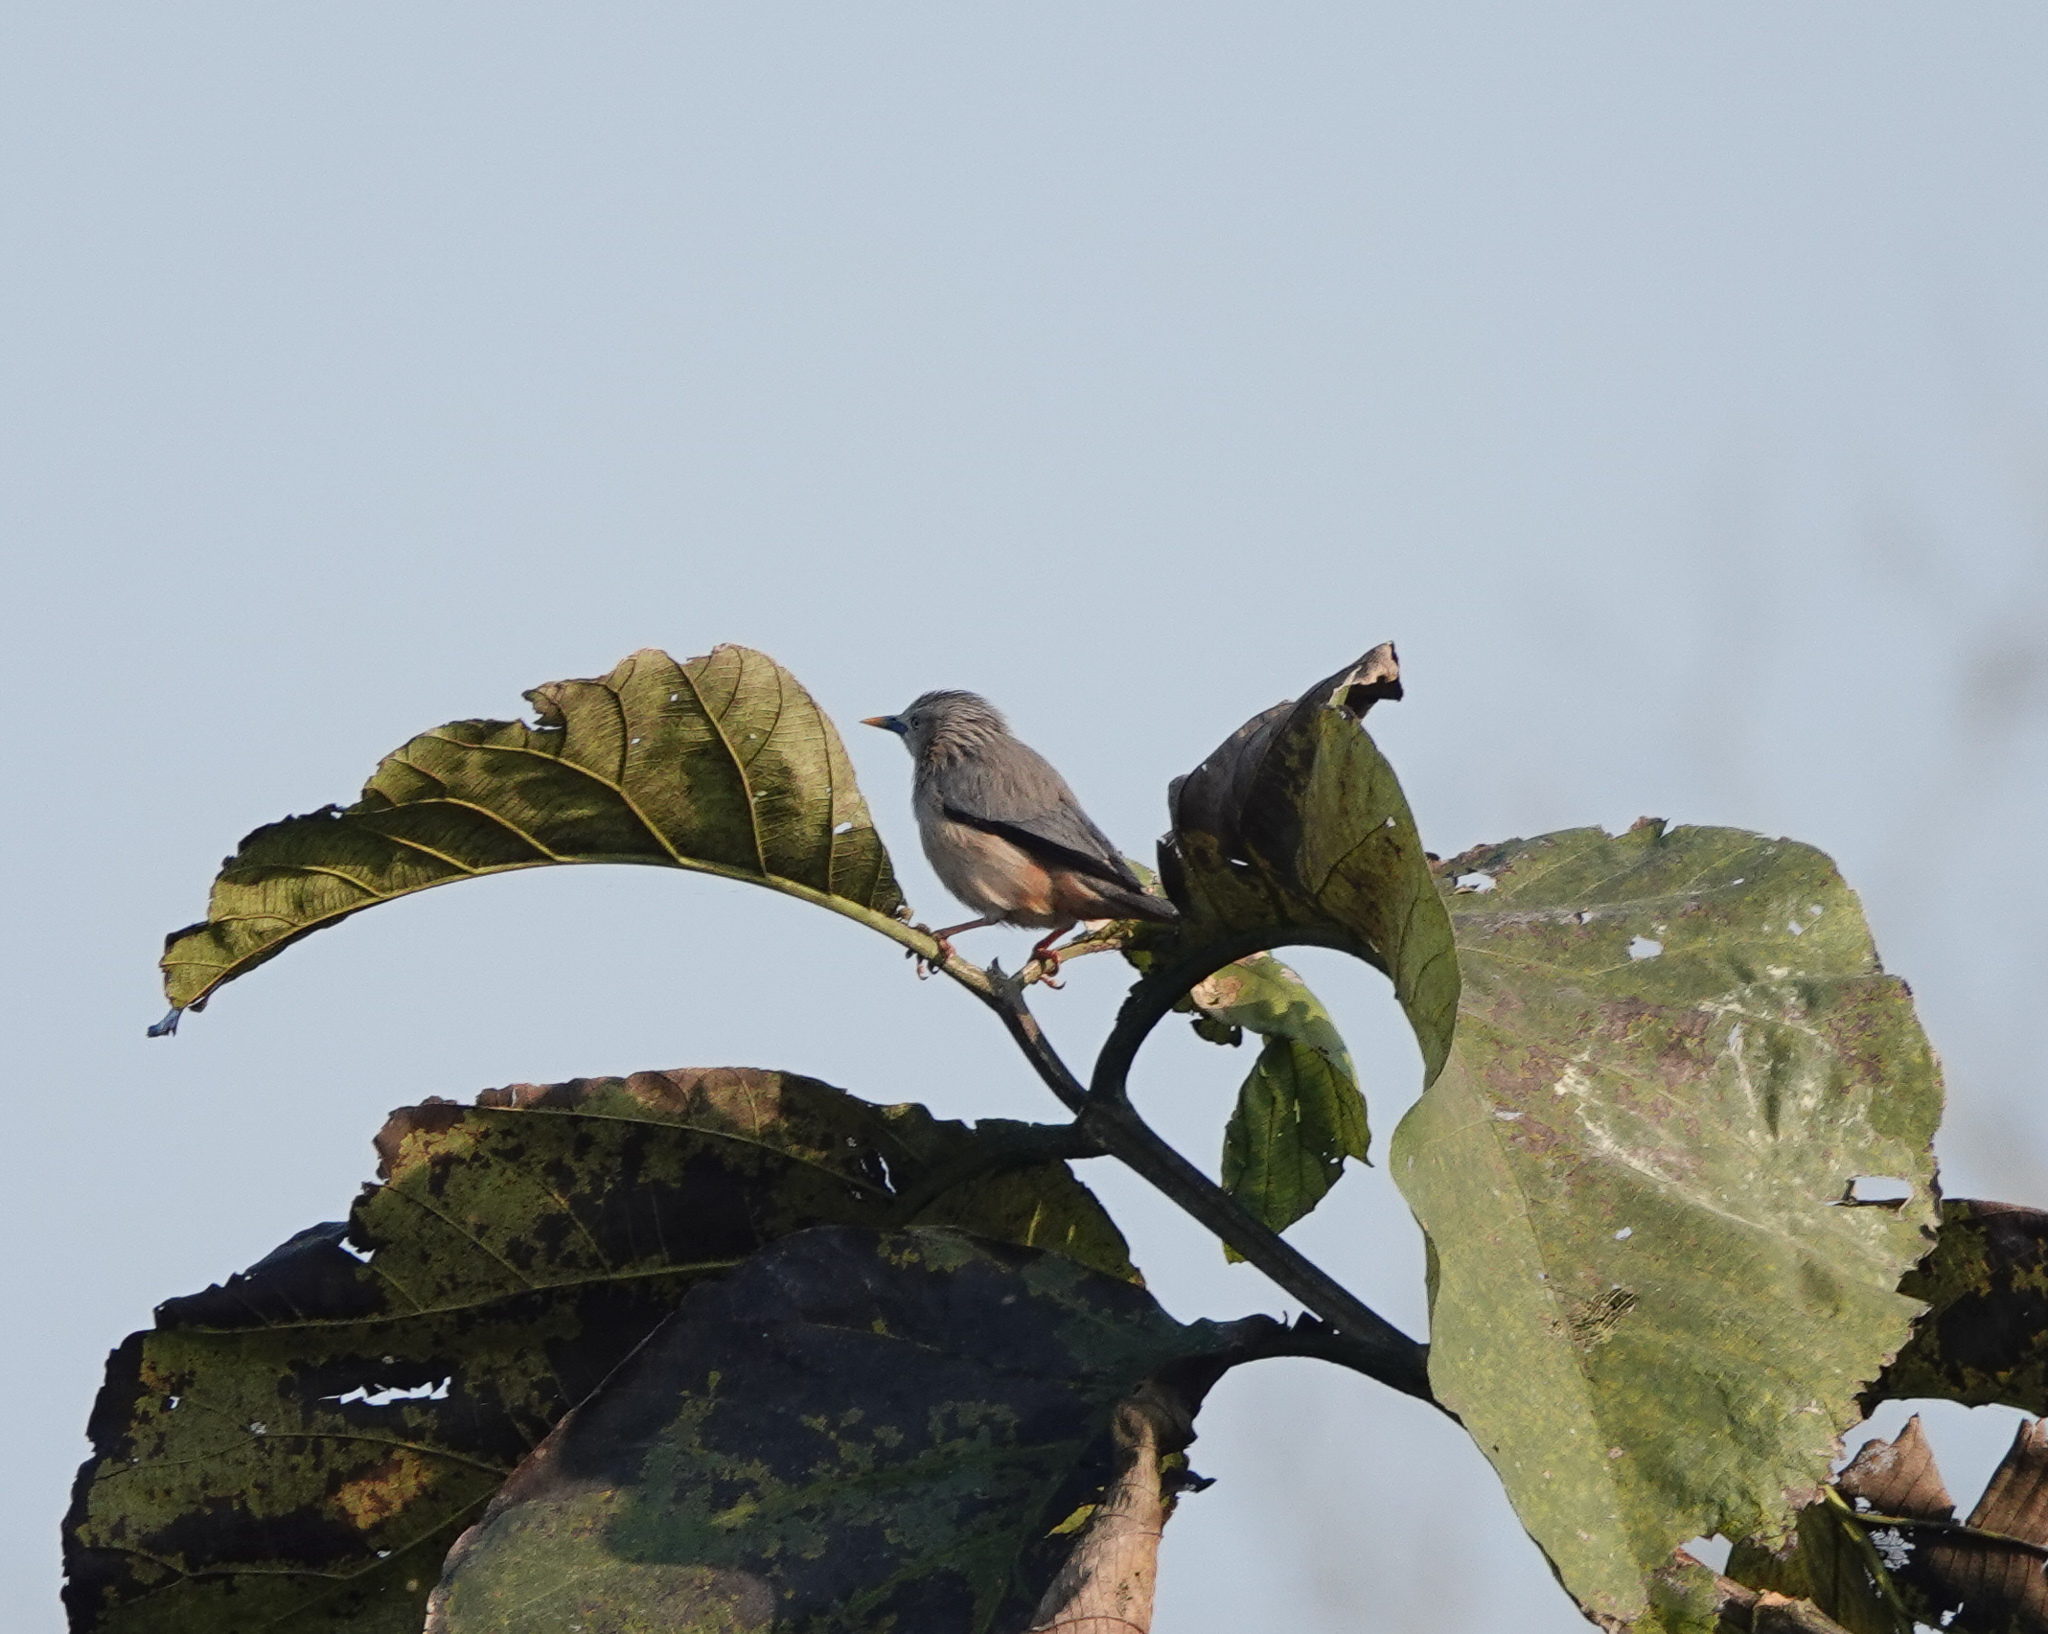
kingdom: Animalia
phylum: Chordata
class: Aves
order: Passeriformes
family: Sturnidae
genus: Sturnia
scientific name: Sturnia malabarica
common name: Chestnut-tailed starling
